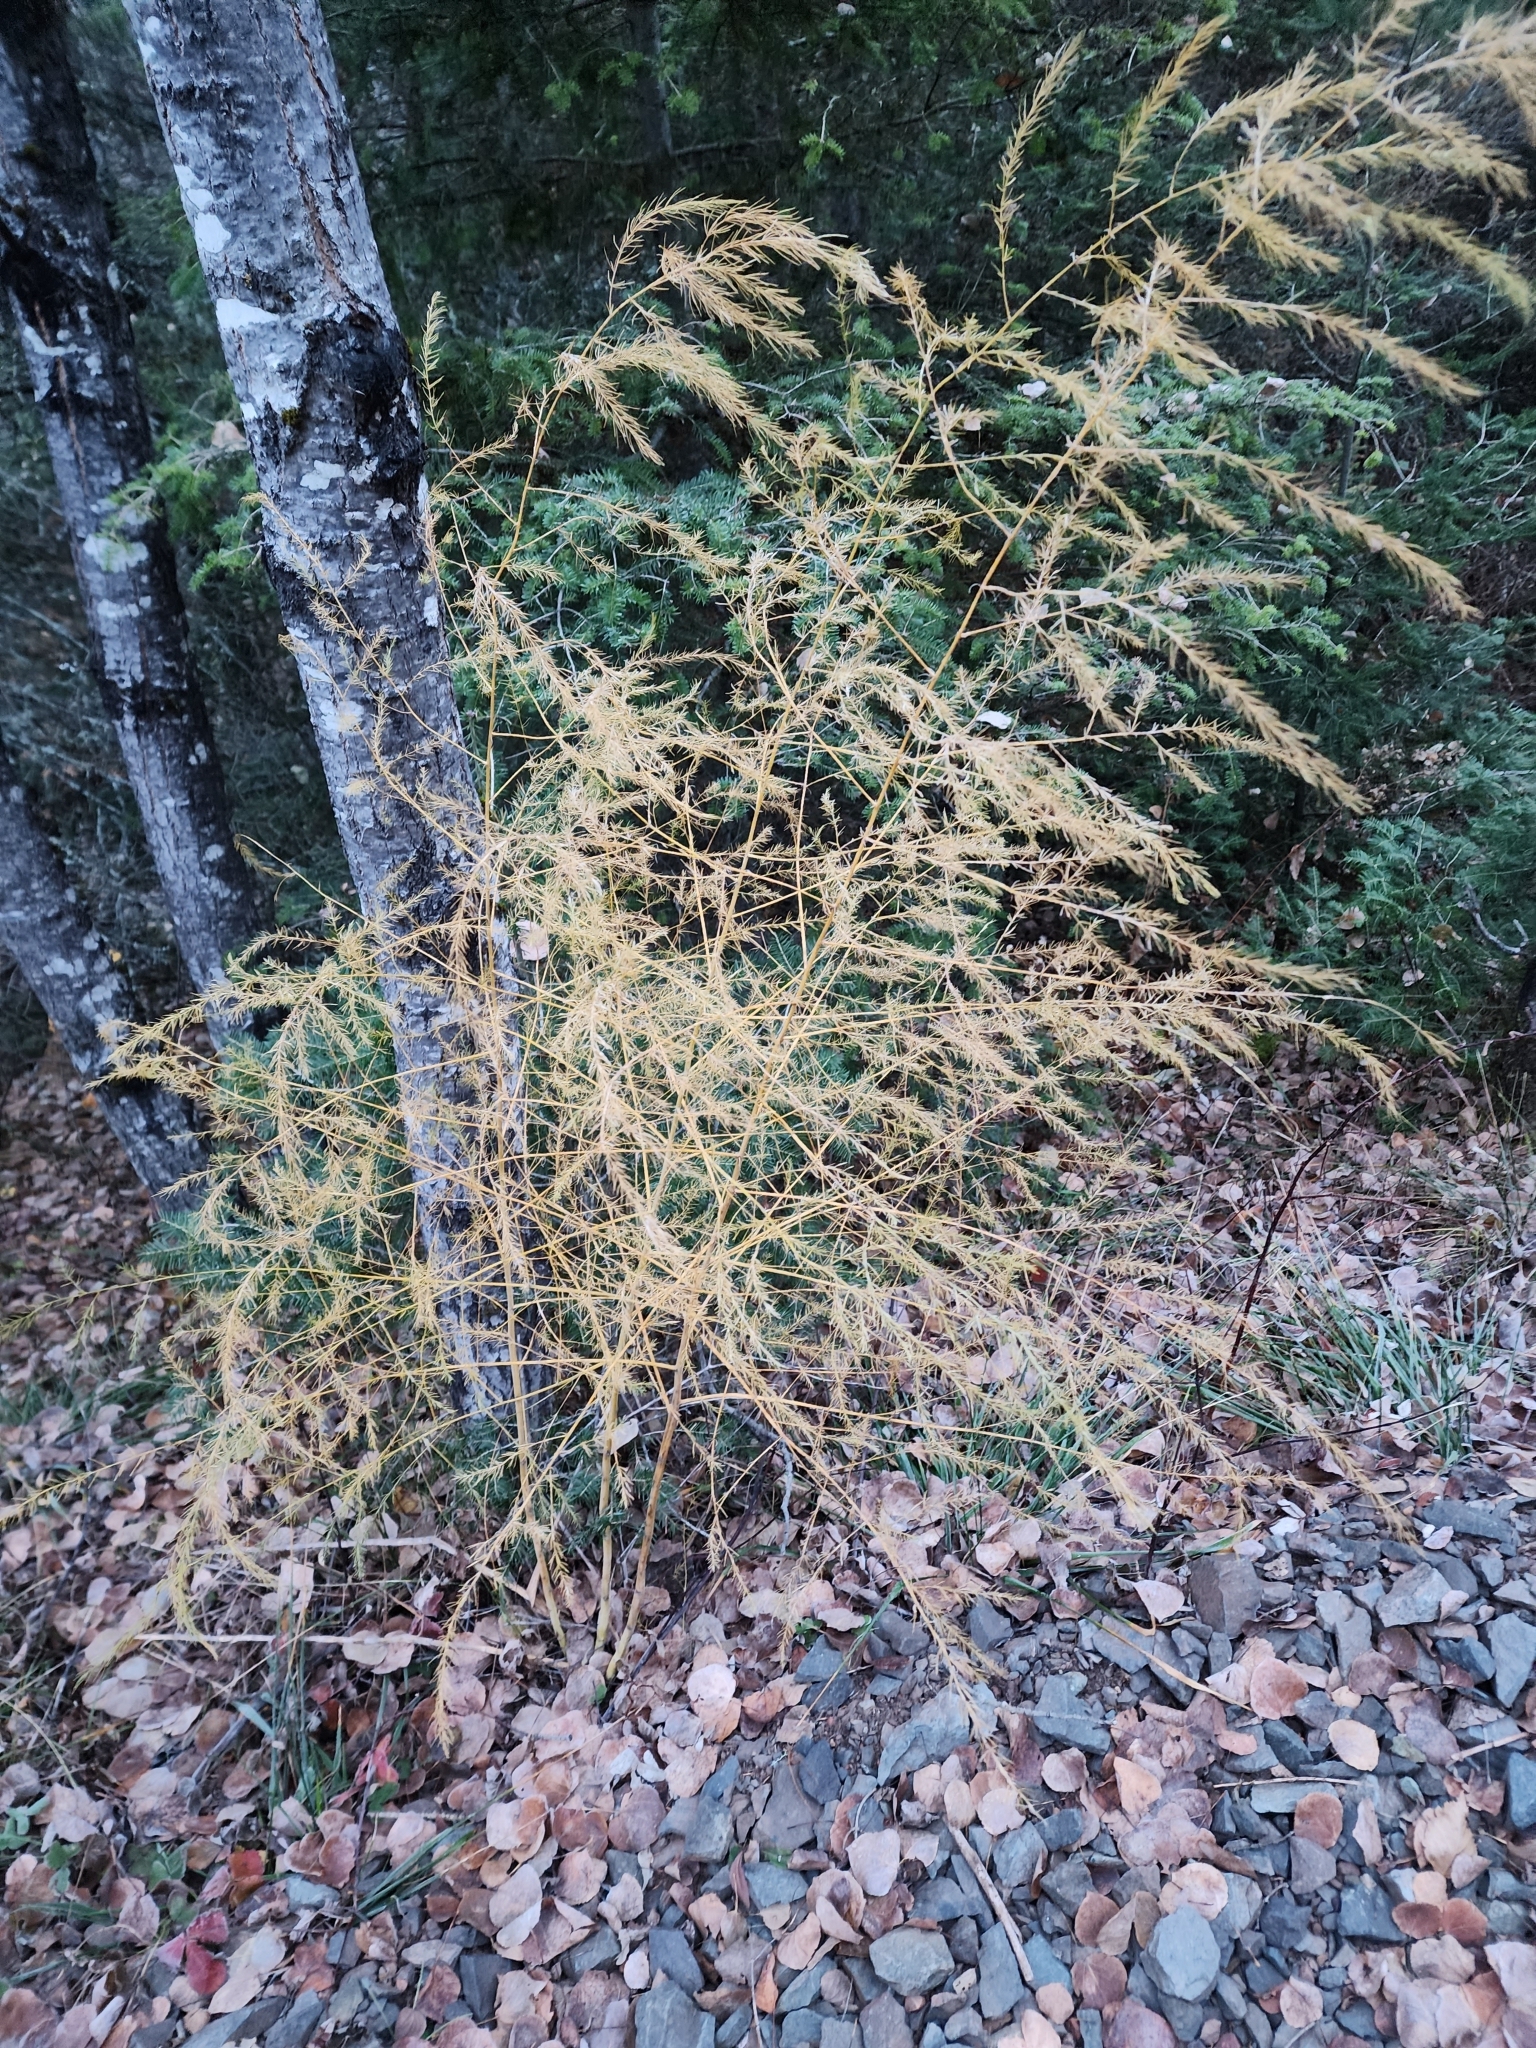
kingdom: Plantae
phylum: Tracheophyta
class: Liliopsida
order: Asparagales
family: Asparagaceae
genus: Asparagus
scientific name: Asparagus officinalis
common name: Garden asparagus
